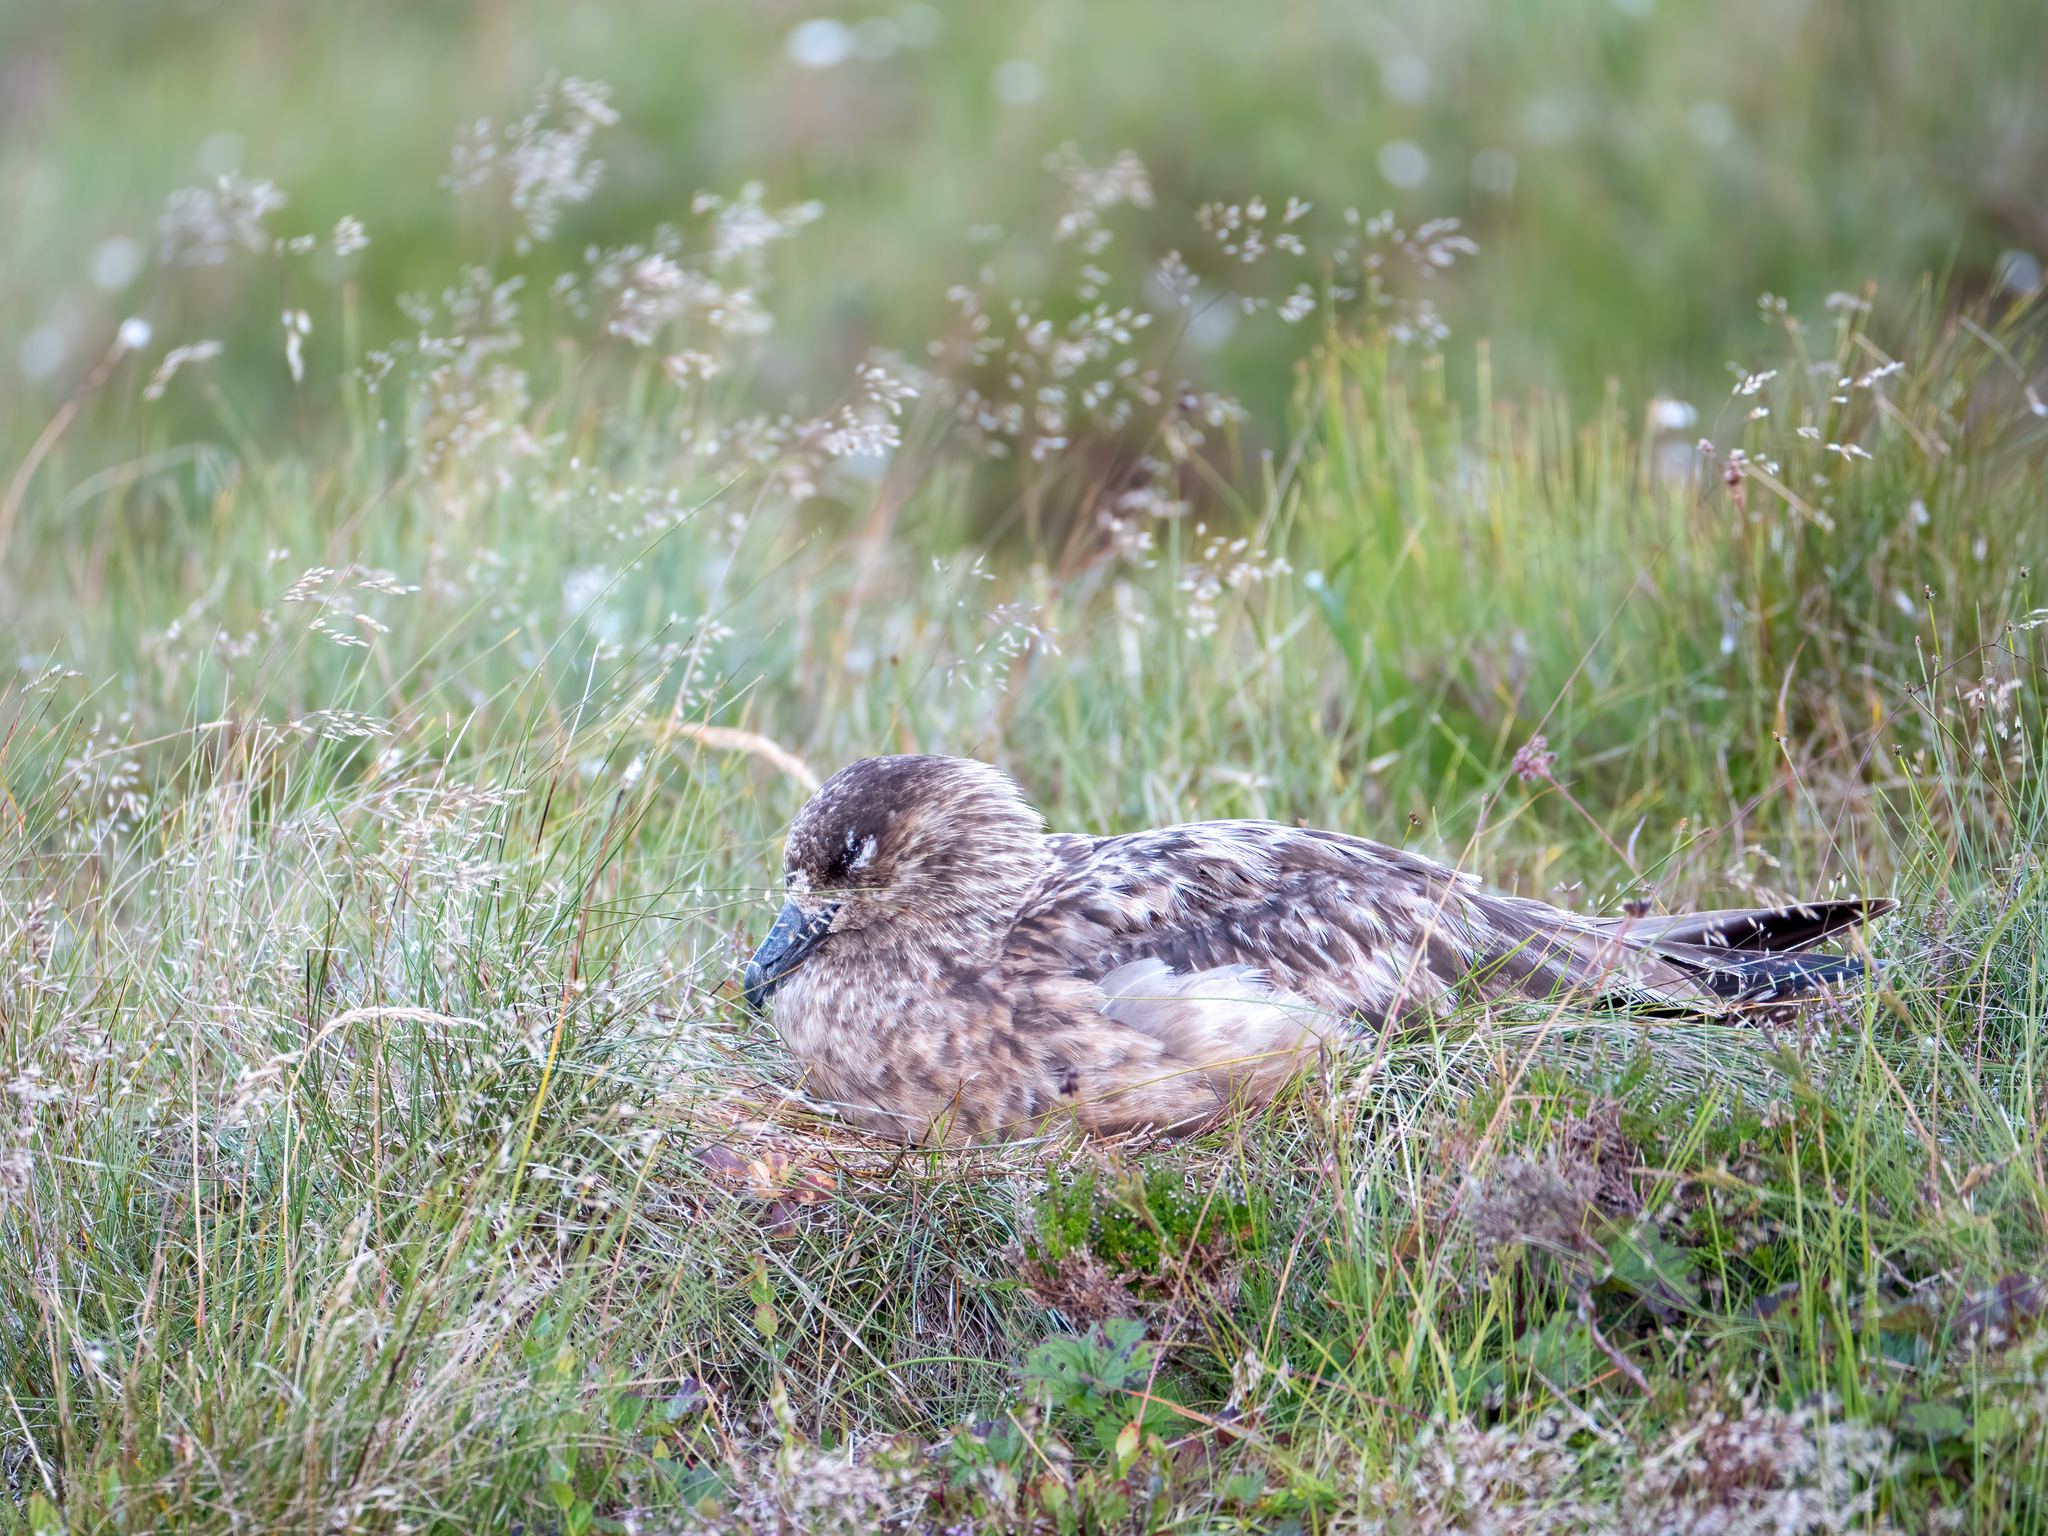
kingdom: Animalia
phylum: Chordata
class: Aves
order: Charadriiformes
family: Stercorariidae
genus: Stercorarius
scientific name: Stercorarius skua
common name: Great skua
